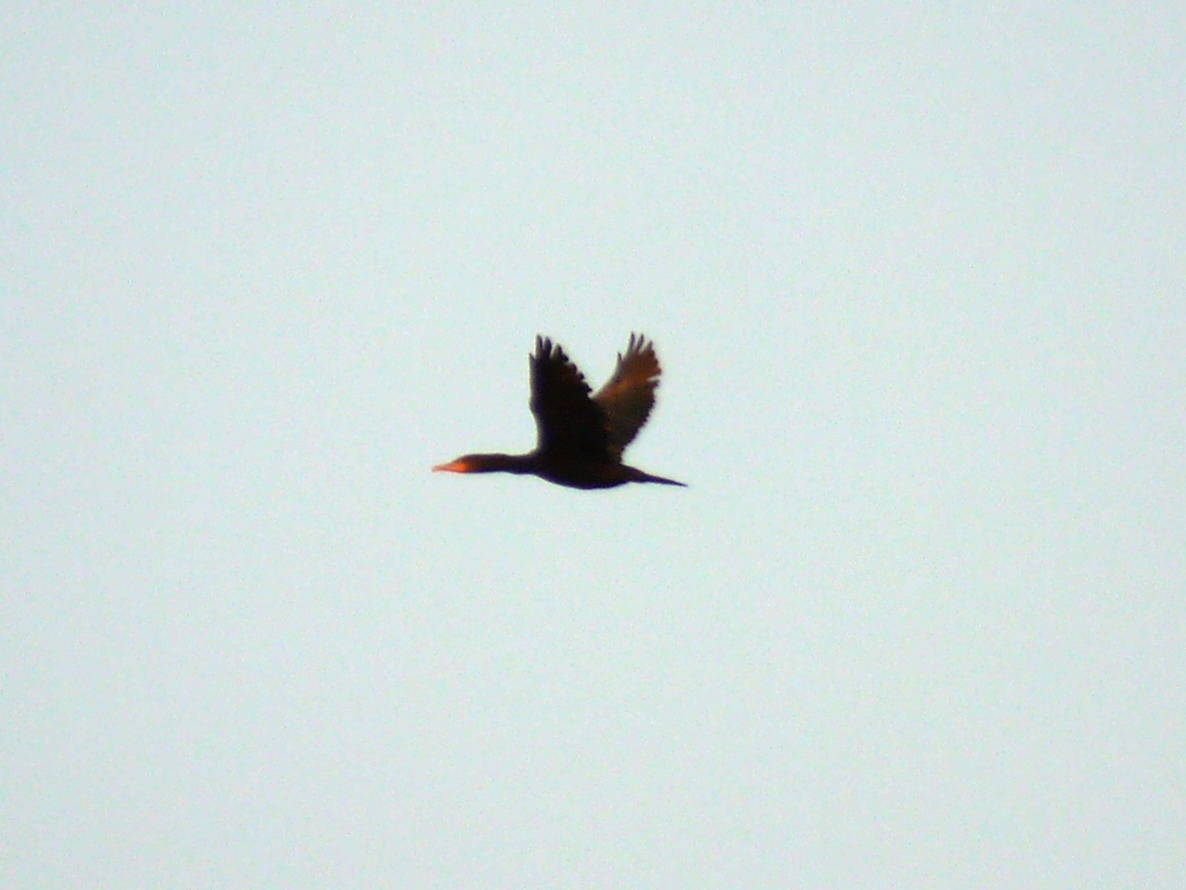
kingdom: Animalia
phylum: Chordata
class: Aves
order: Suliformes
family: Phalacrocoracidae
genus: Phalacrocorax
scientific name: Phalacrocorax carbo
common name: Great cormorant
